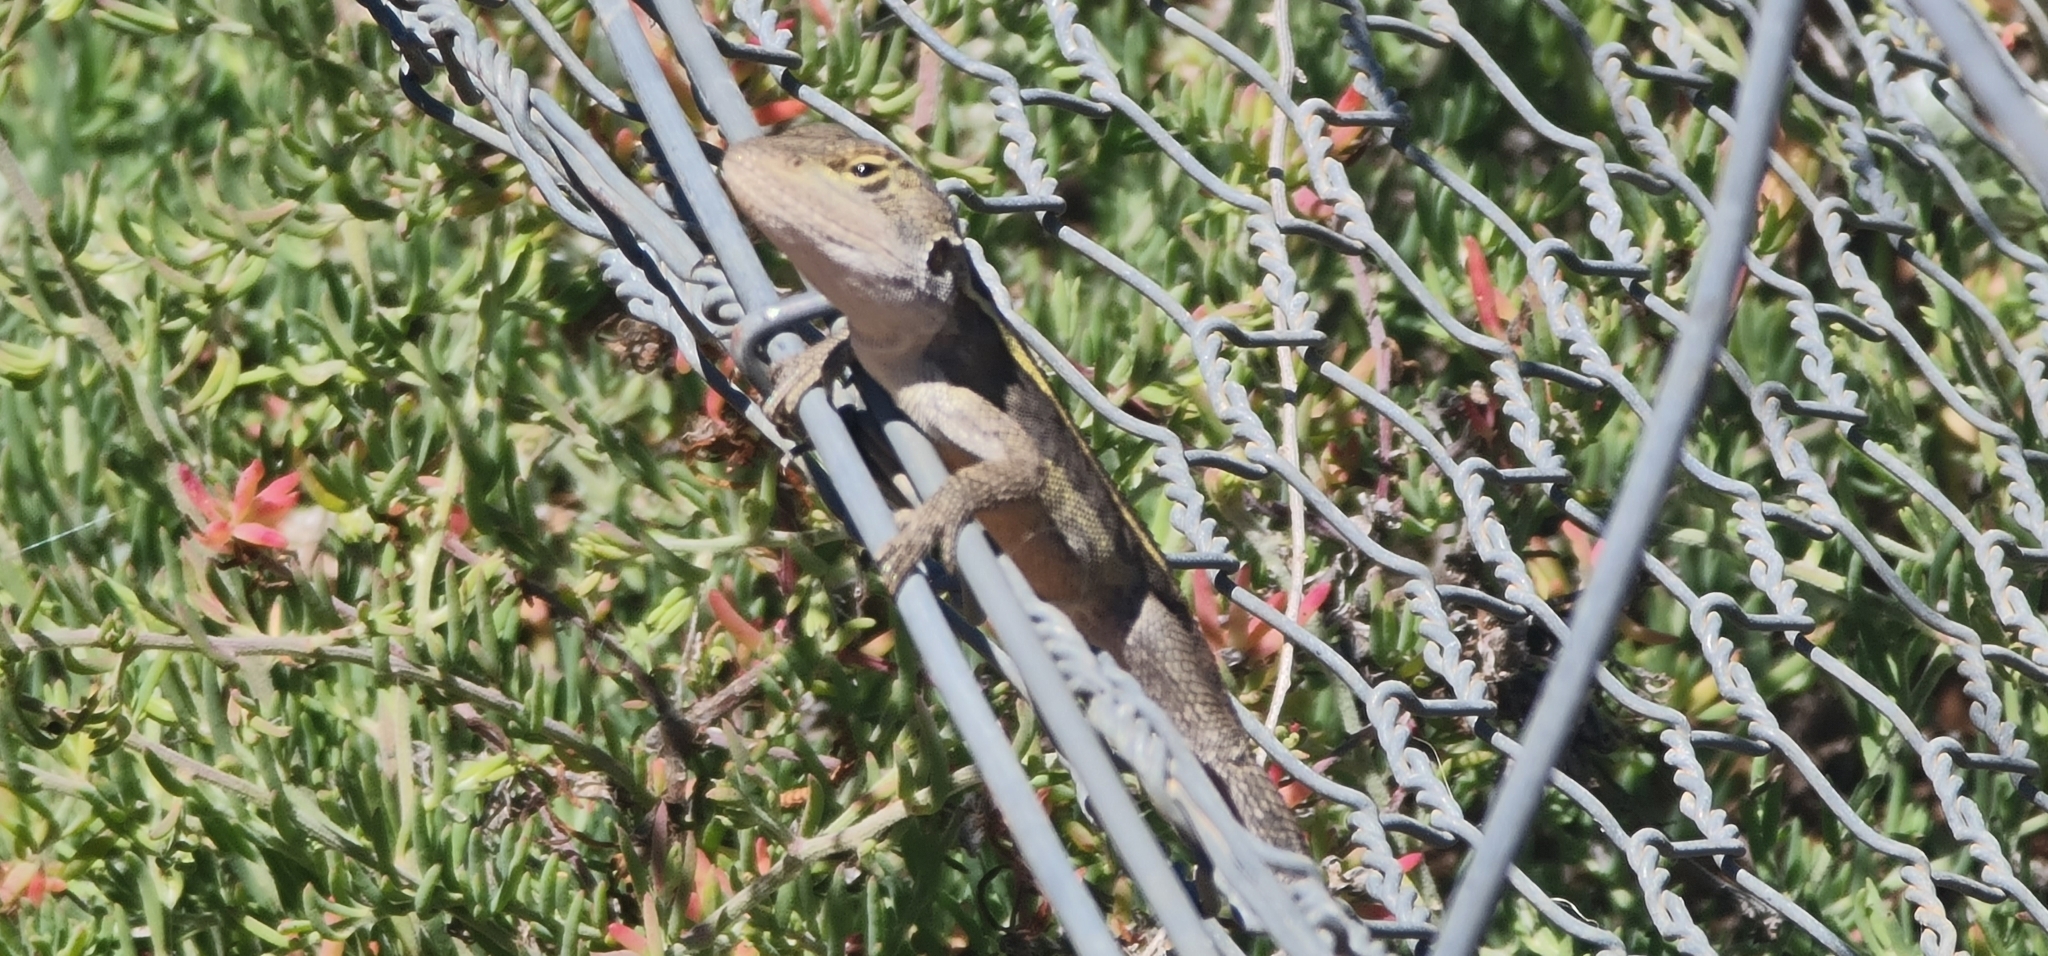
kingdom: Animalia
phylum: Chordata
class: Squamata
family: Agamidae
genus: Diporiphora
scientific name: Diporiphora nobbi
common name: Nobbi
